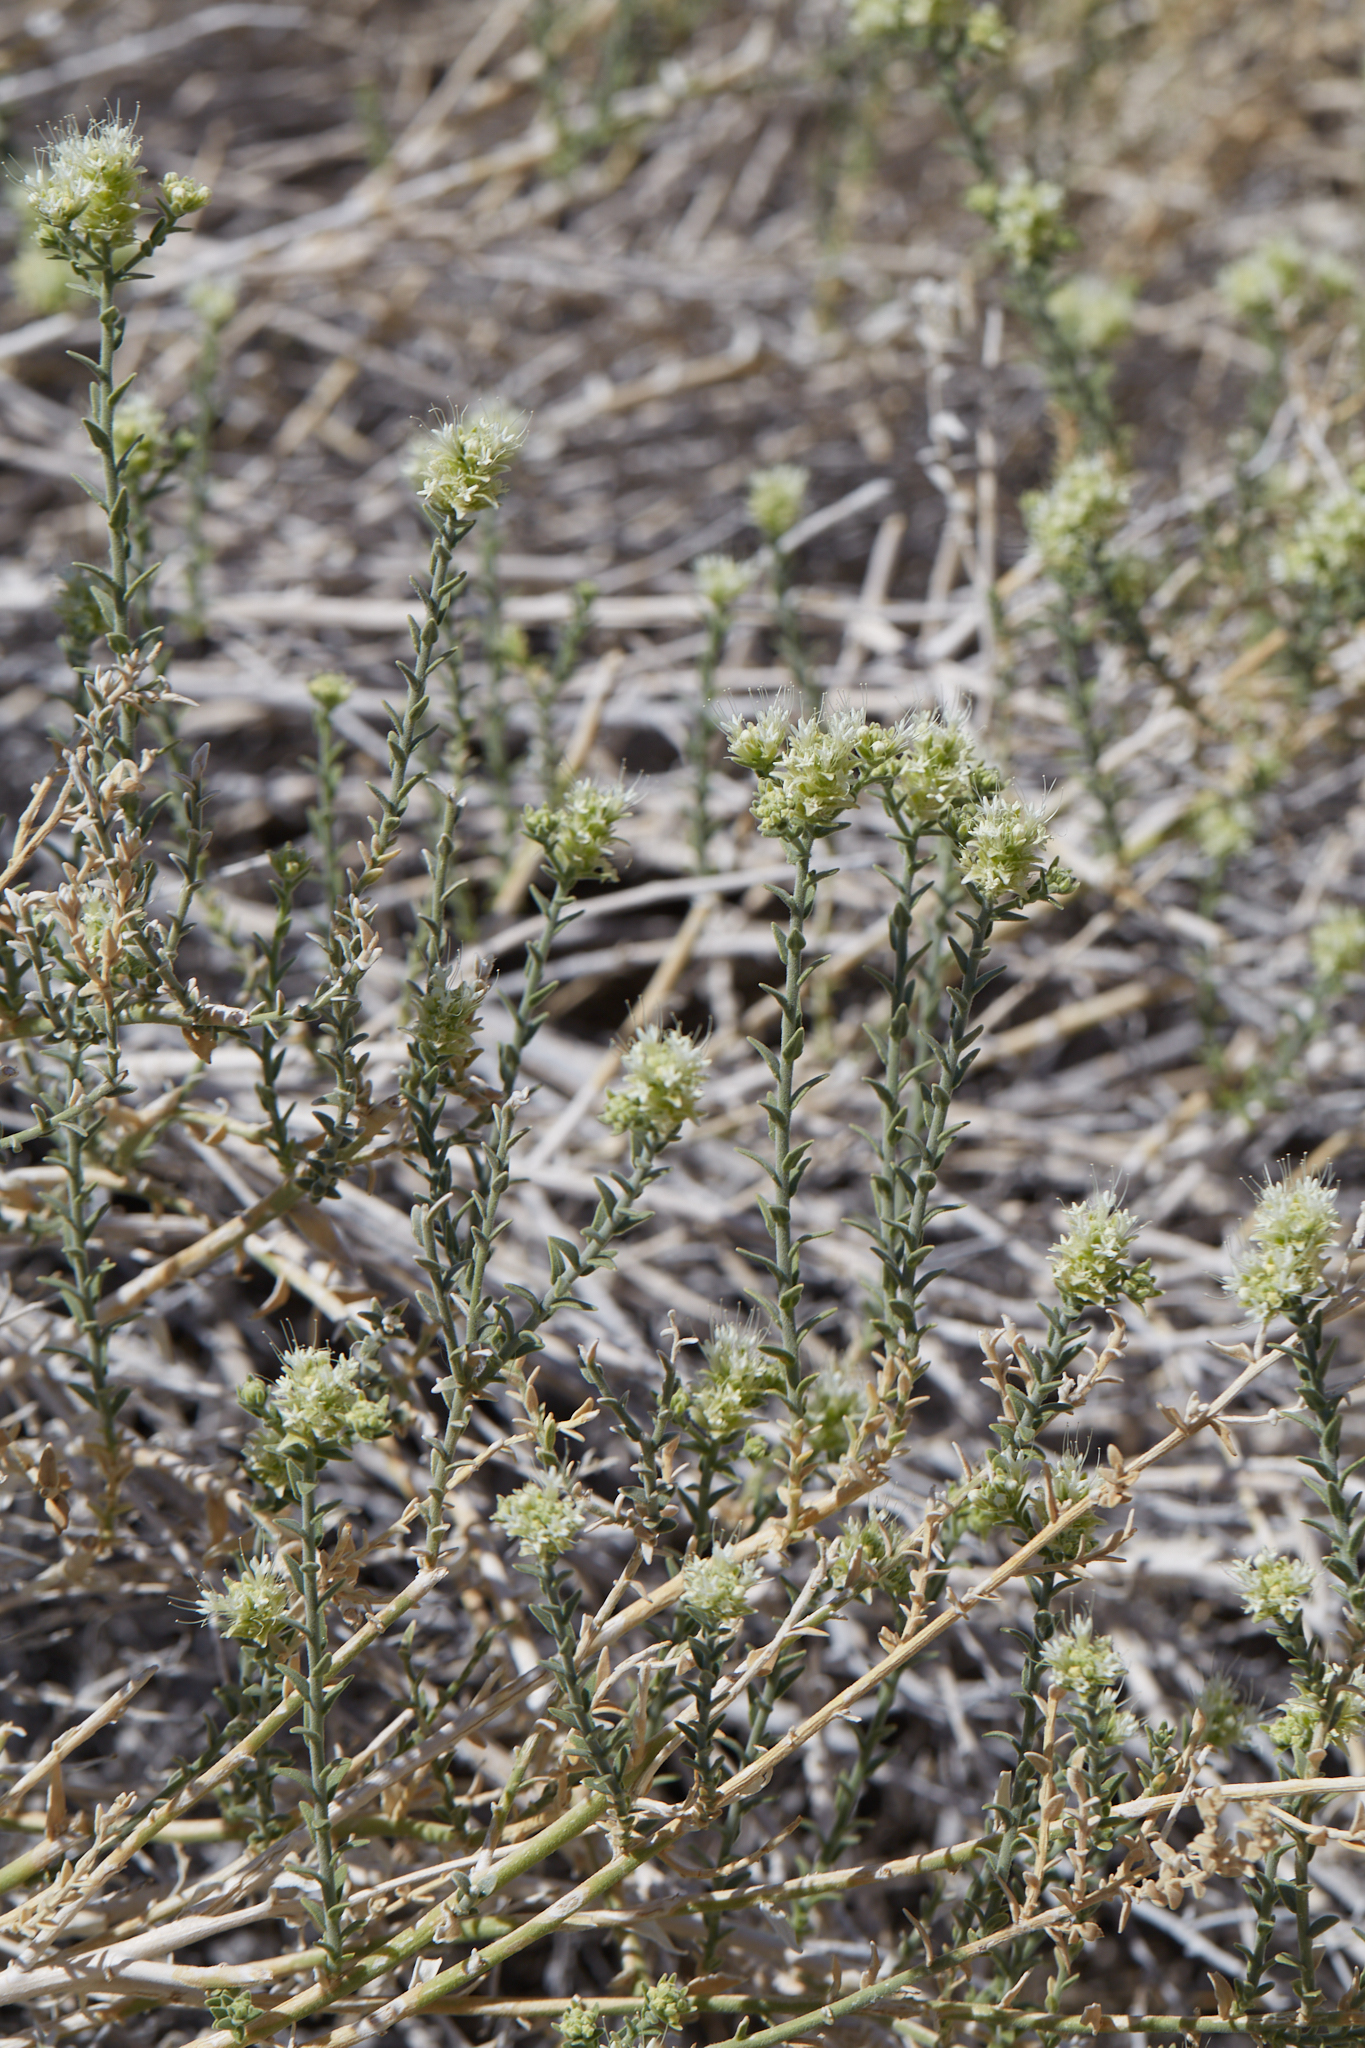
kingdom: Plantae
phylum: Tracheophyta
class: Magnoliopsida
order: Cornales
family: Loasaceae
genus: Petalonyx
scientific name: Petalonyx thurberi
